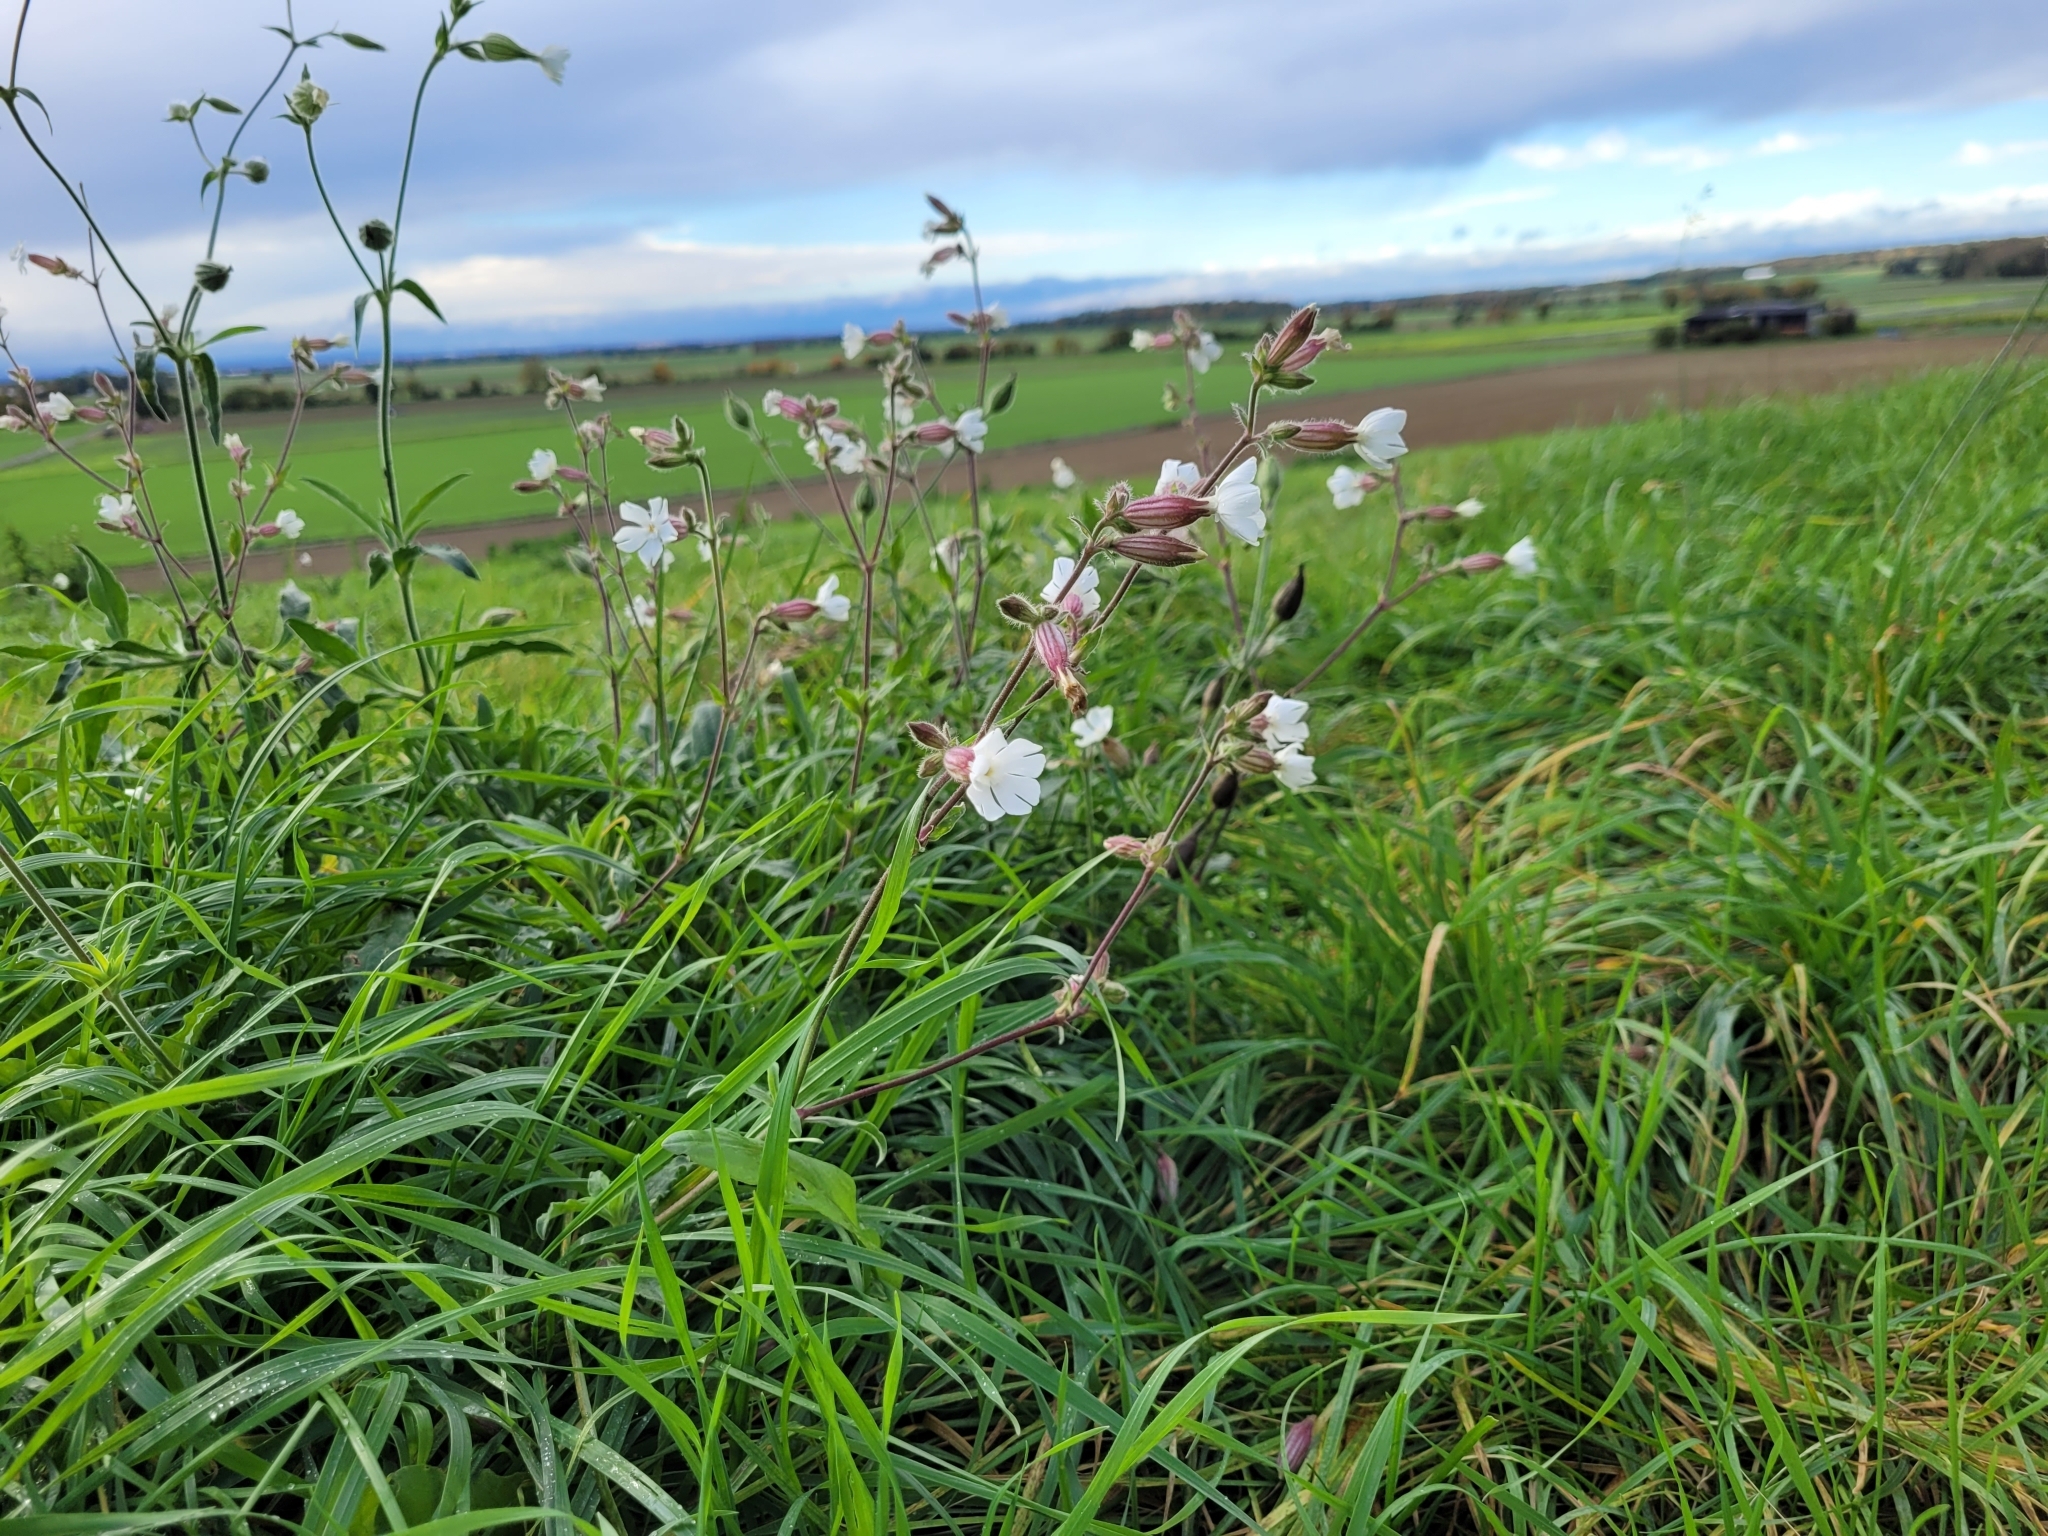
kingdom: Plantae
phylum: Tracheophyta
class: Magnoliopsida
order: Caryophyllales
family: Caryophyllaceae
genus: Silene
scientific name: Silene latifolia
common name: White campion
